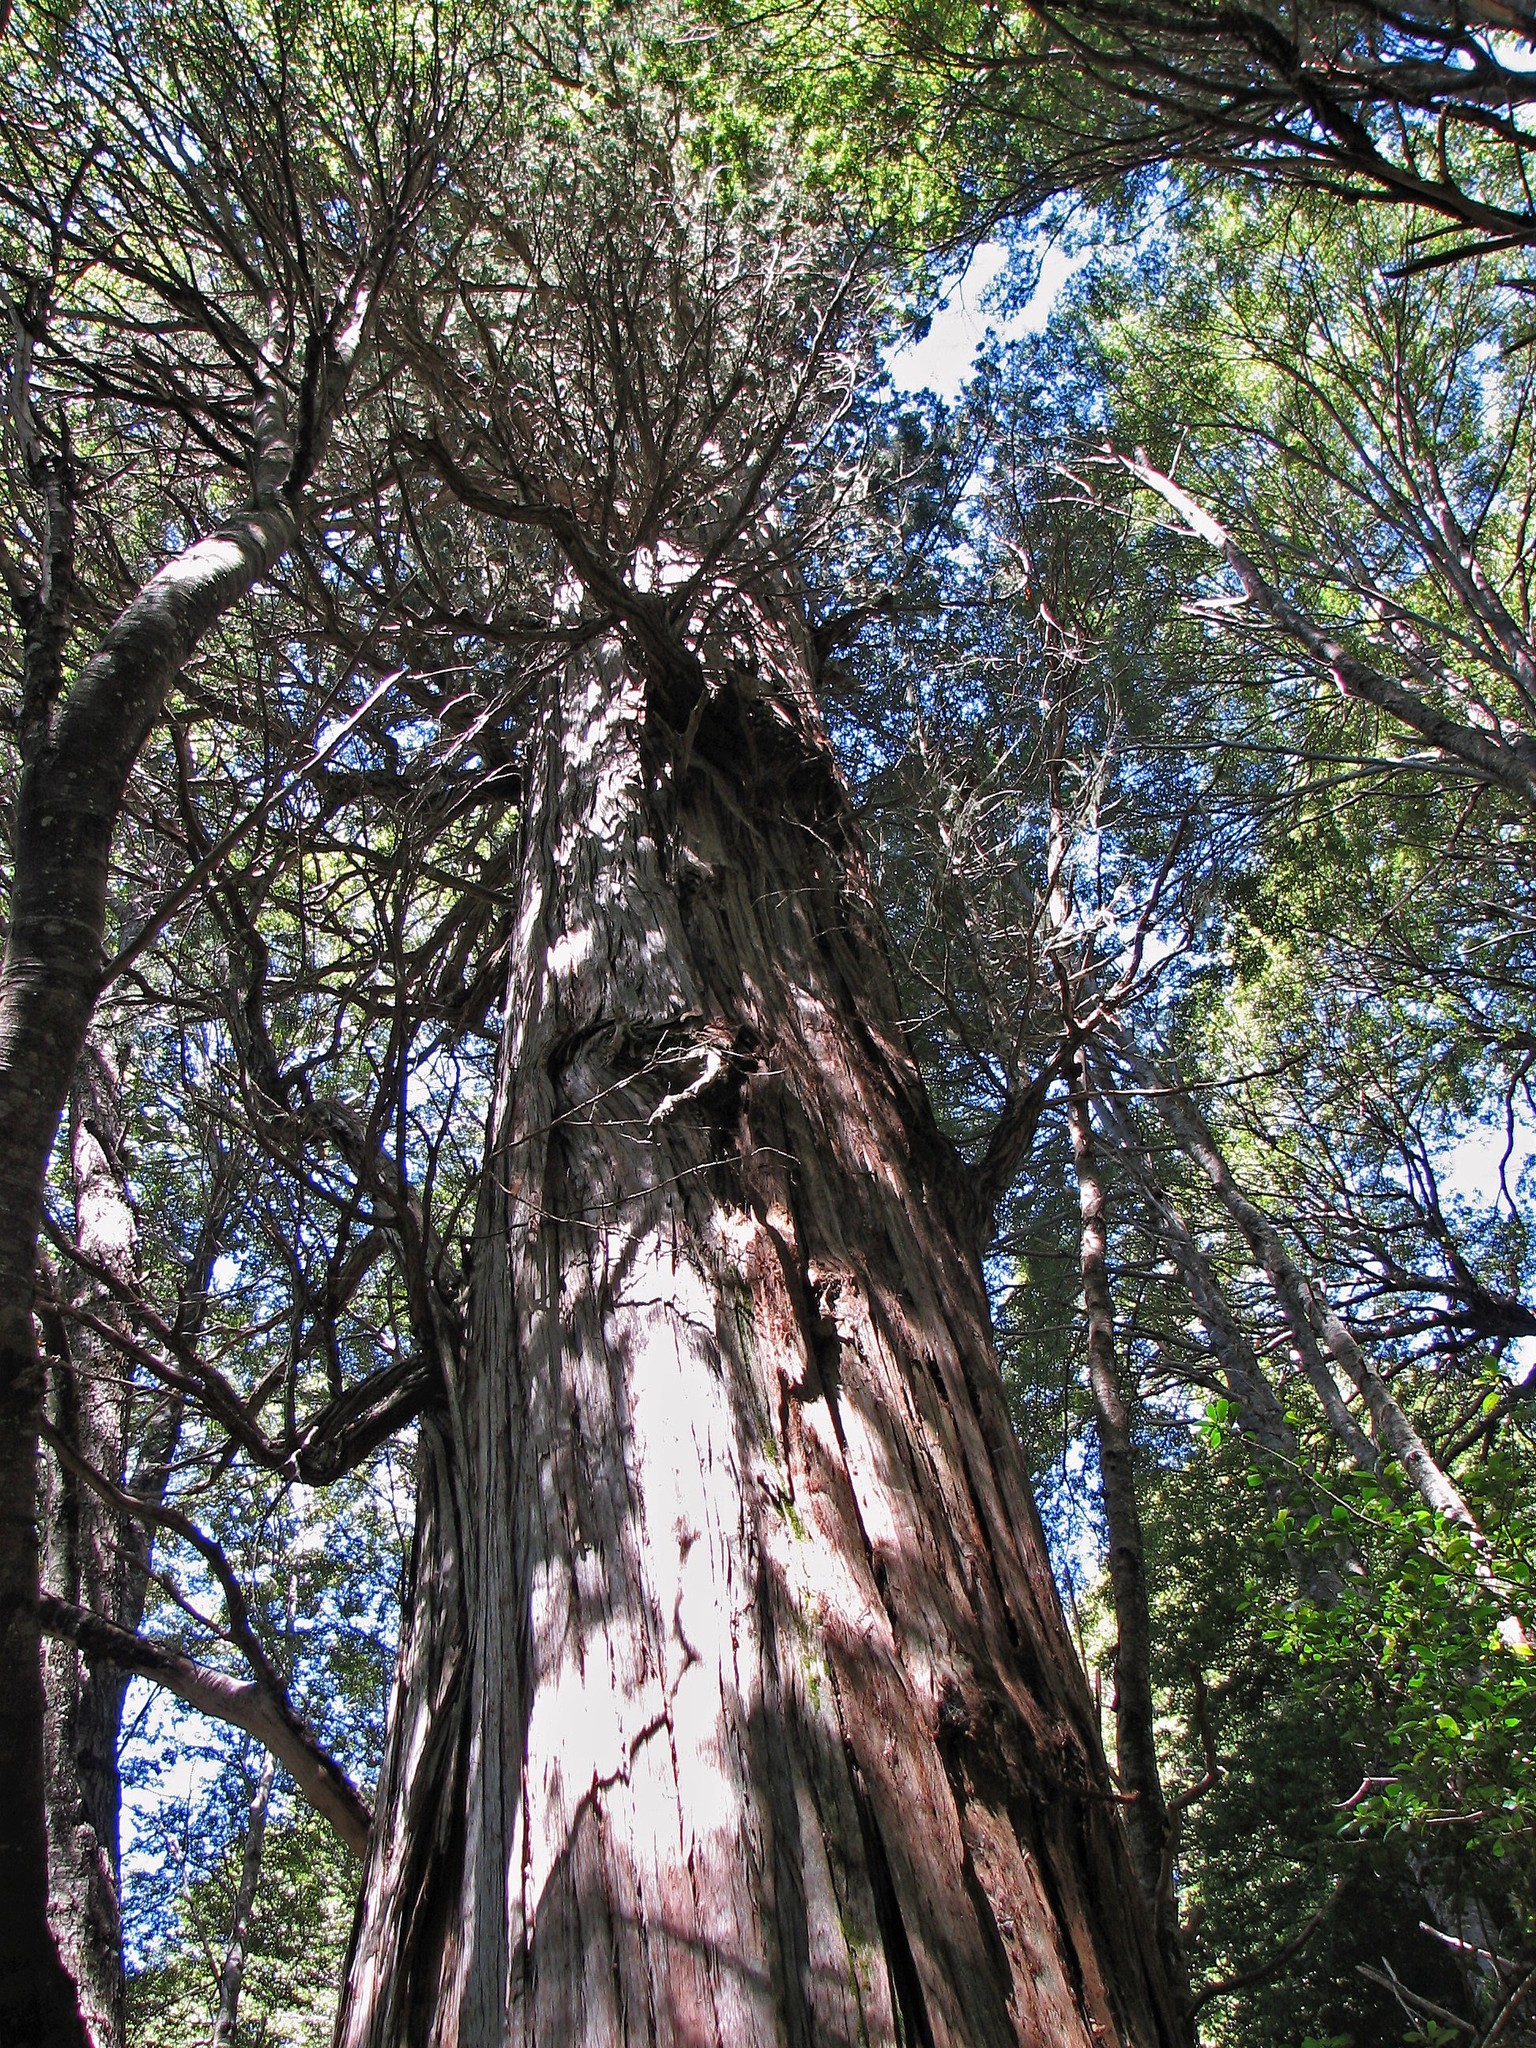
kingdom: Plantae
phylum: Tracheophyta
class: Magnoliopsida
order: Fagales
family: Nothofagaceae
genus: Nothofagus
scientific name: Nothofagus dombeyi
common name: Coigue
